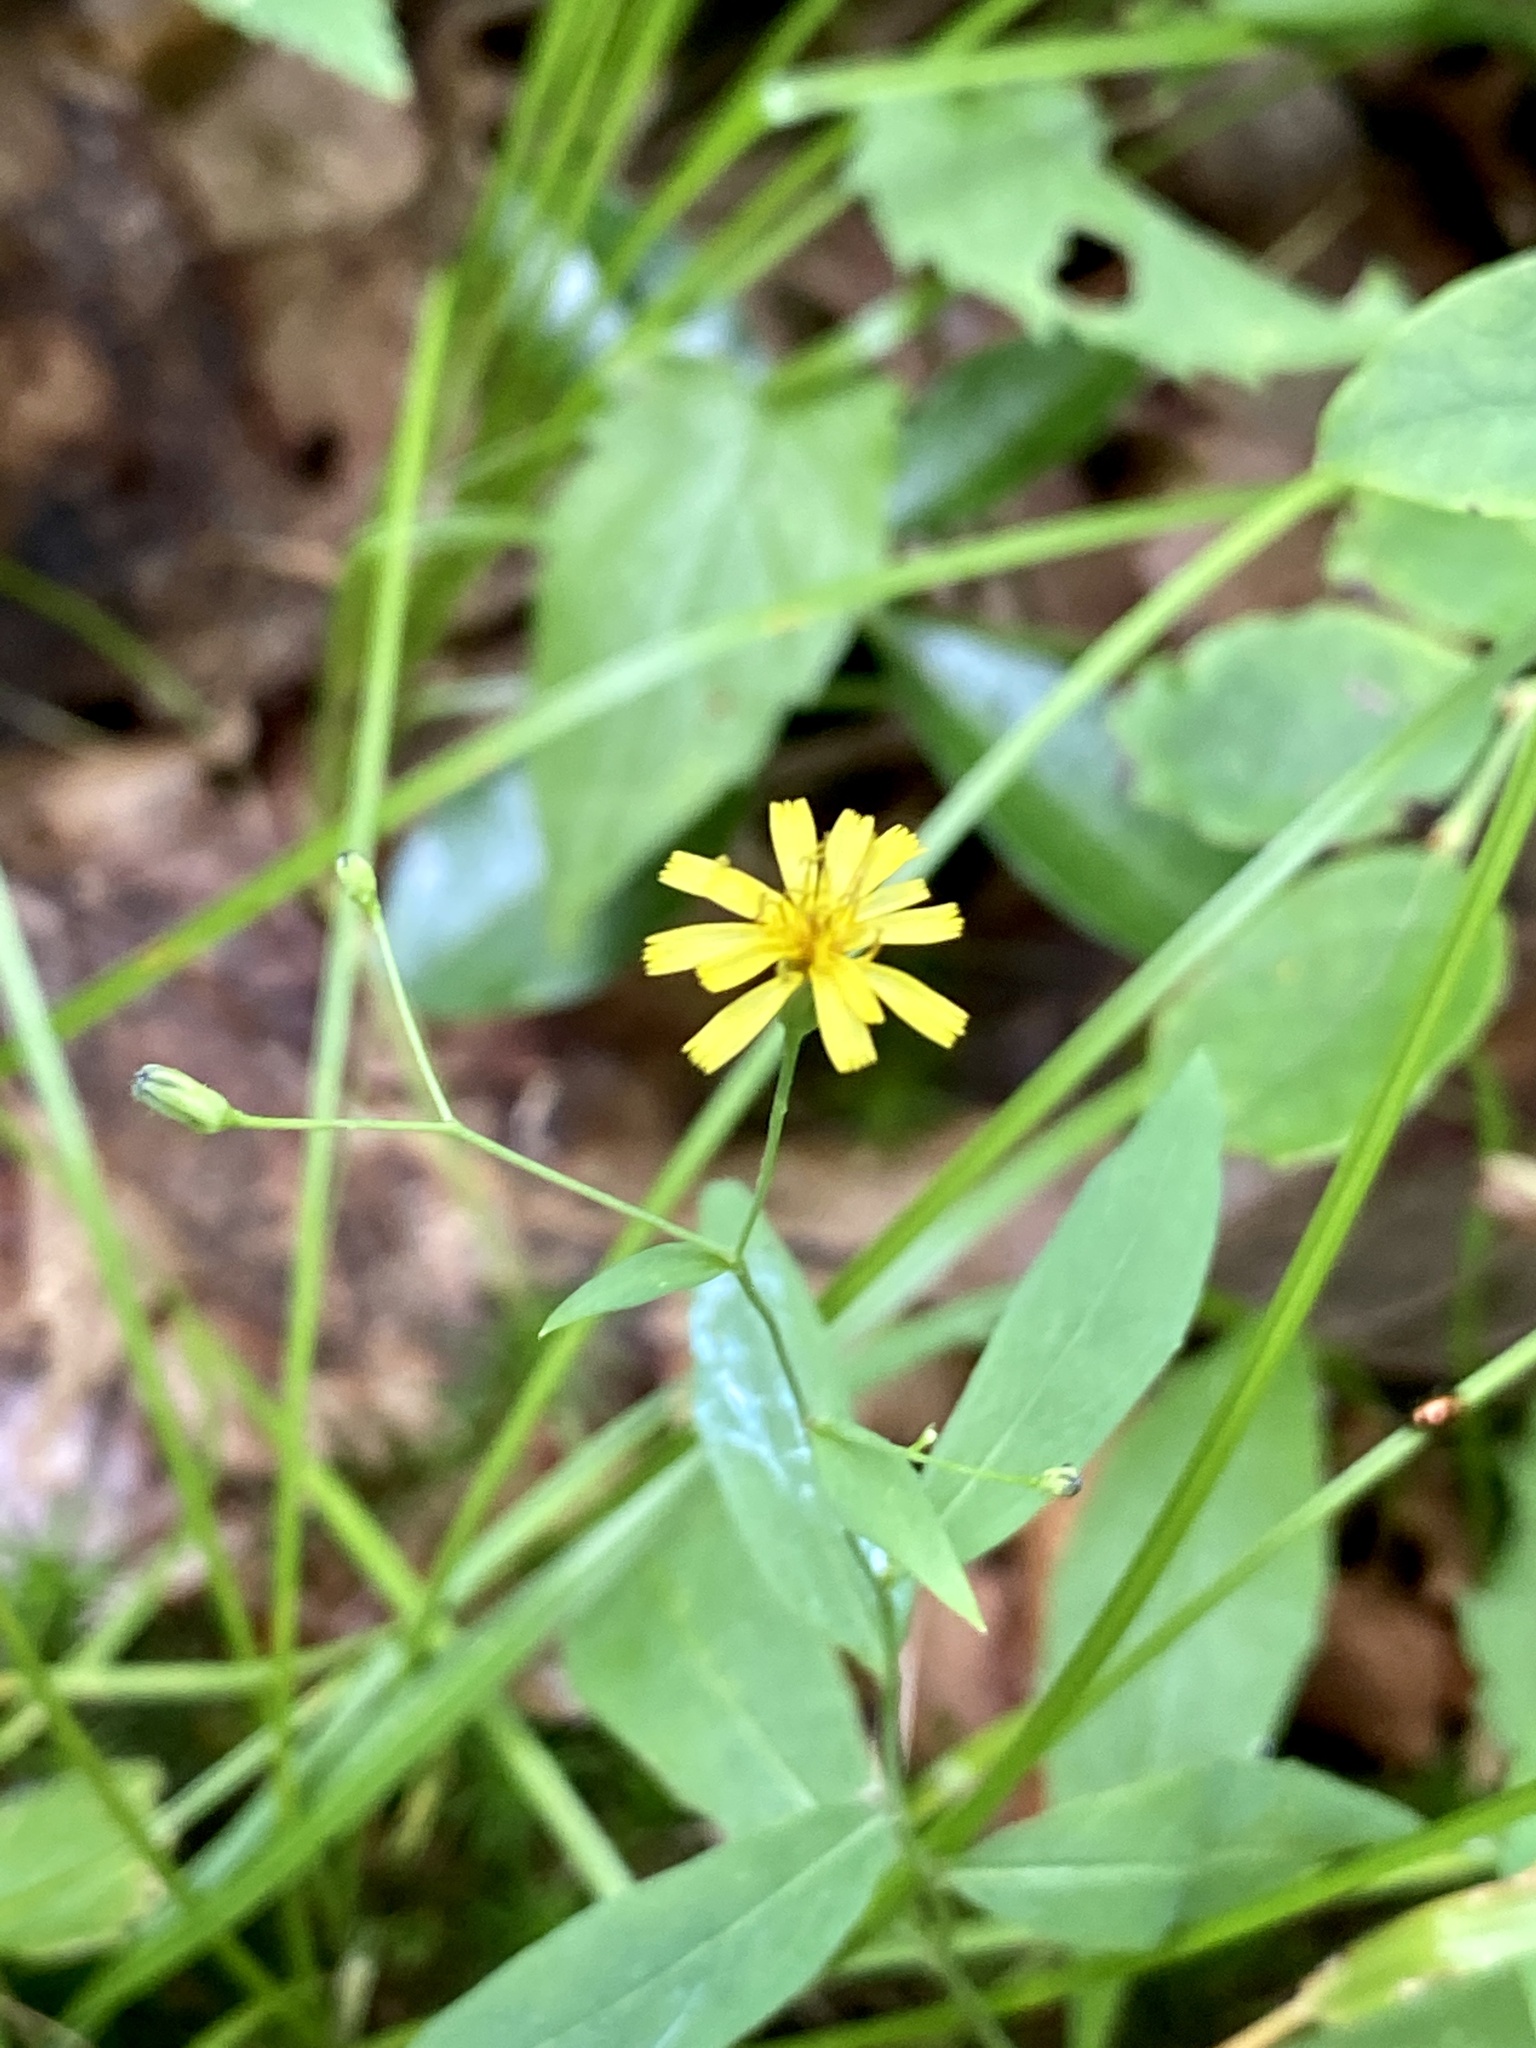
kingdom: Plantae
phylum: Tracheophyta
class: Magnoliopsida
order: Asterales
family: Asteraceae
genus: Hieracium
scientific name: Hieracium paniculatum
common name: Allegheny hawkweed
